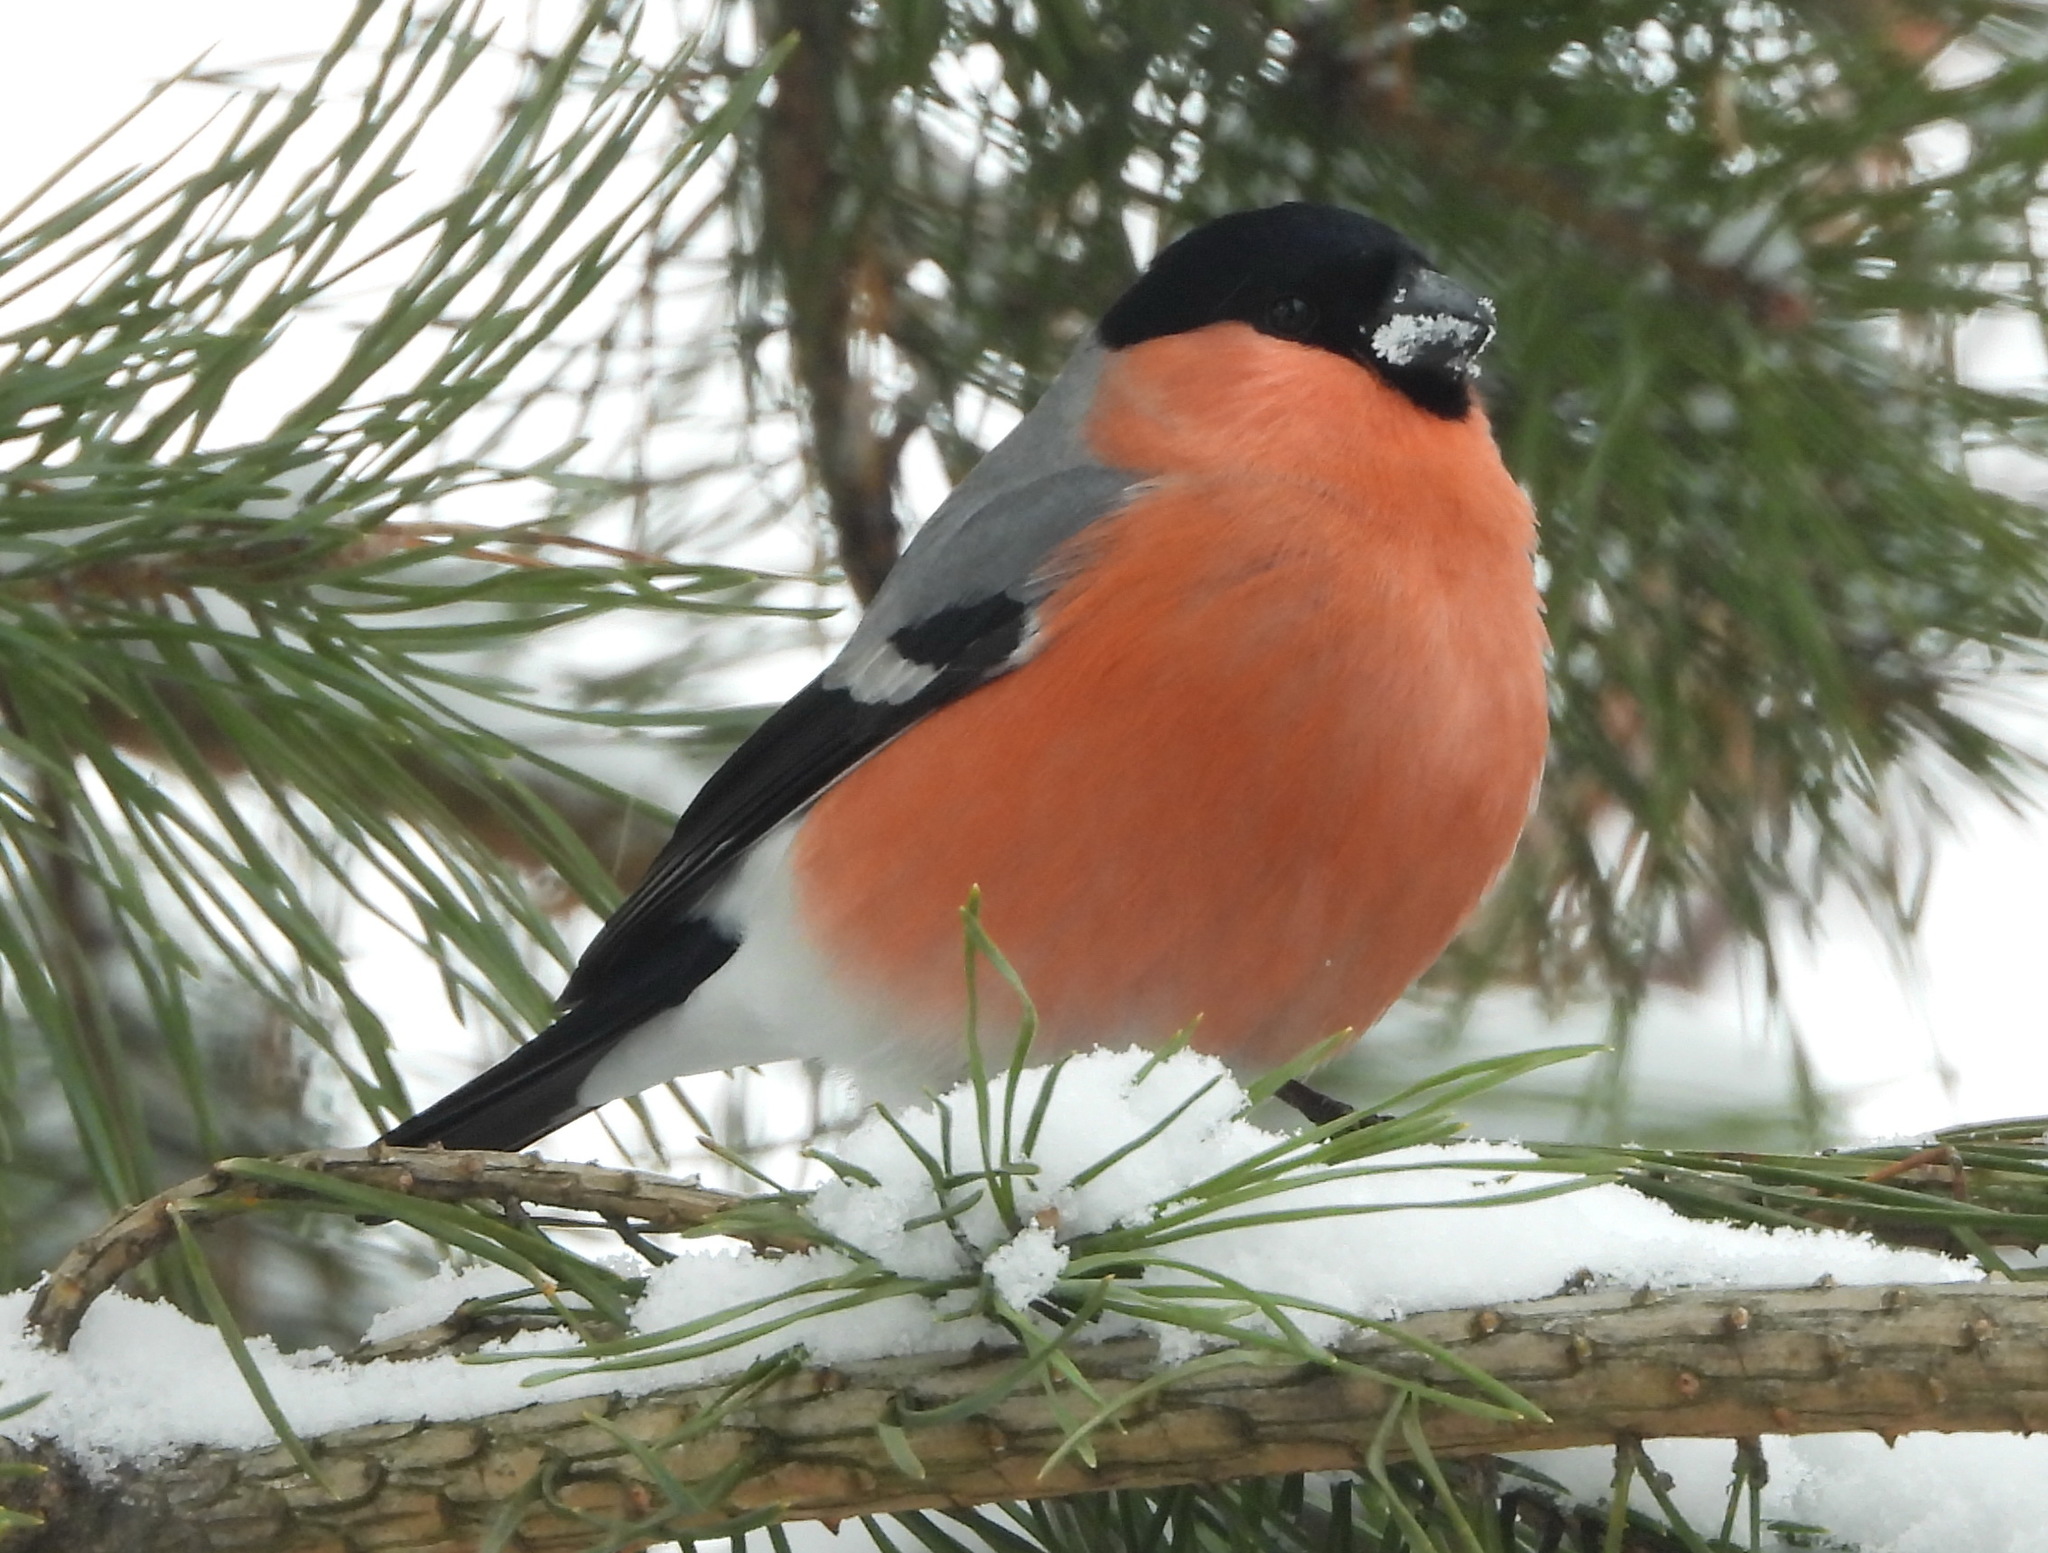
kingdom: Animalia
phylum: Chordata
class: Aves
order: Passeriformes
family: Fringillidae
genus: Pyrrhula
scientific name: Pyrrhula pyrrhula
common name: Eurasian bullfinch
